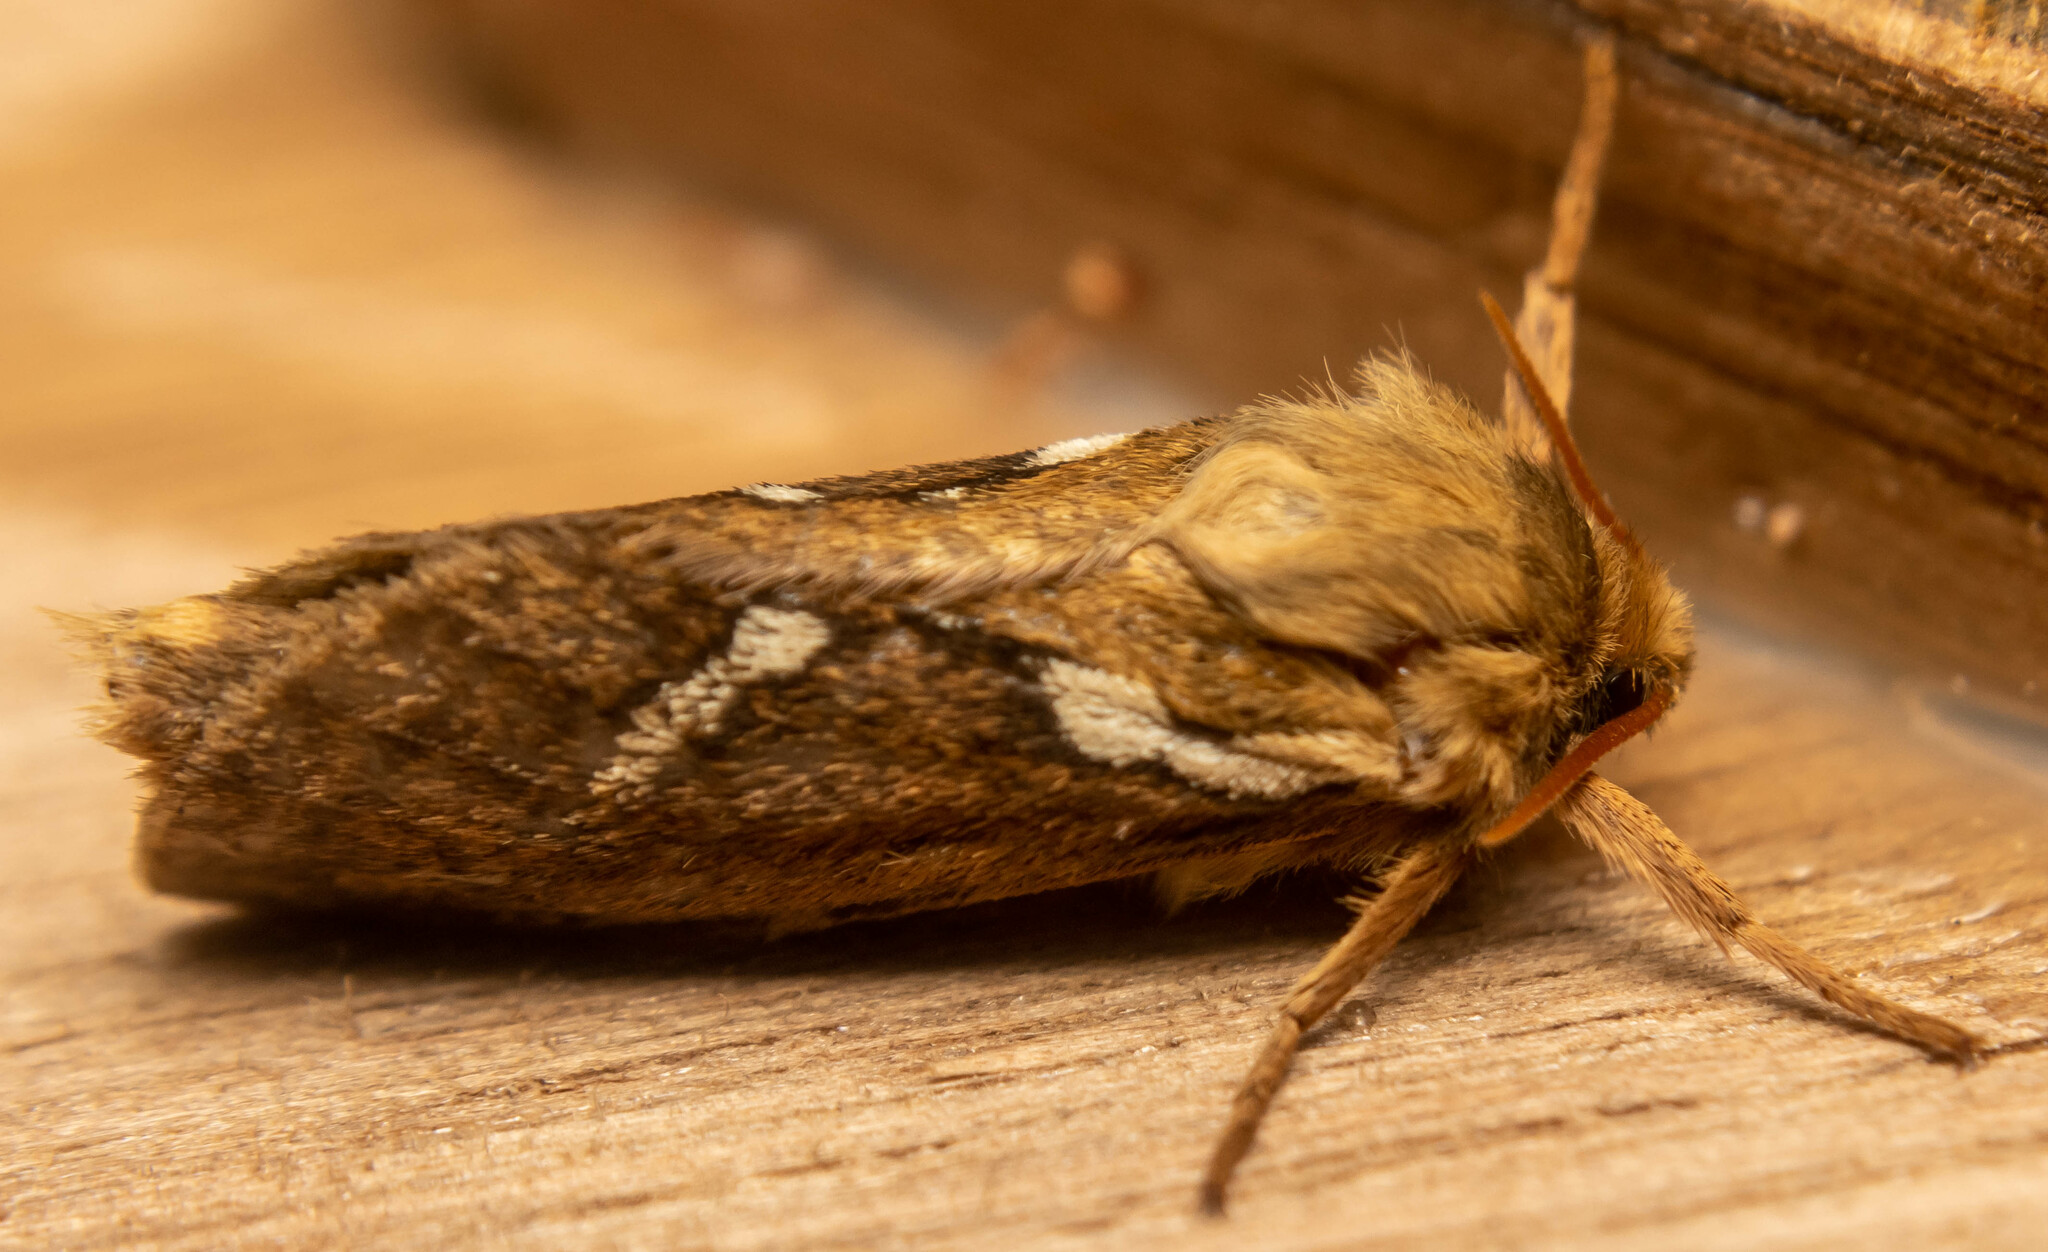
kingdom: Animalia
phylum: Arthropoda
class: Insecta
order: Lepidoptera
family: Hepialidae
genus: Korscheltellus
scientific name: Korscheltellus lupulina
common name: Common swift
